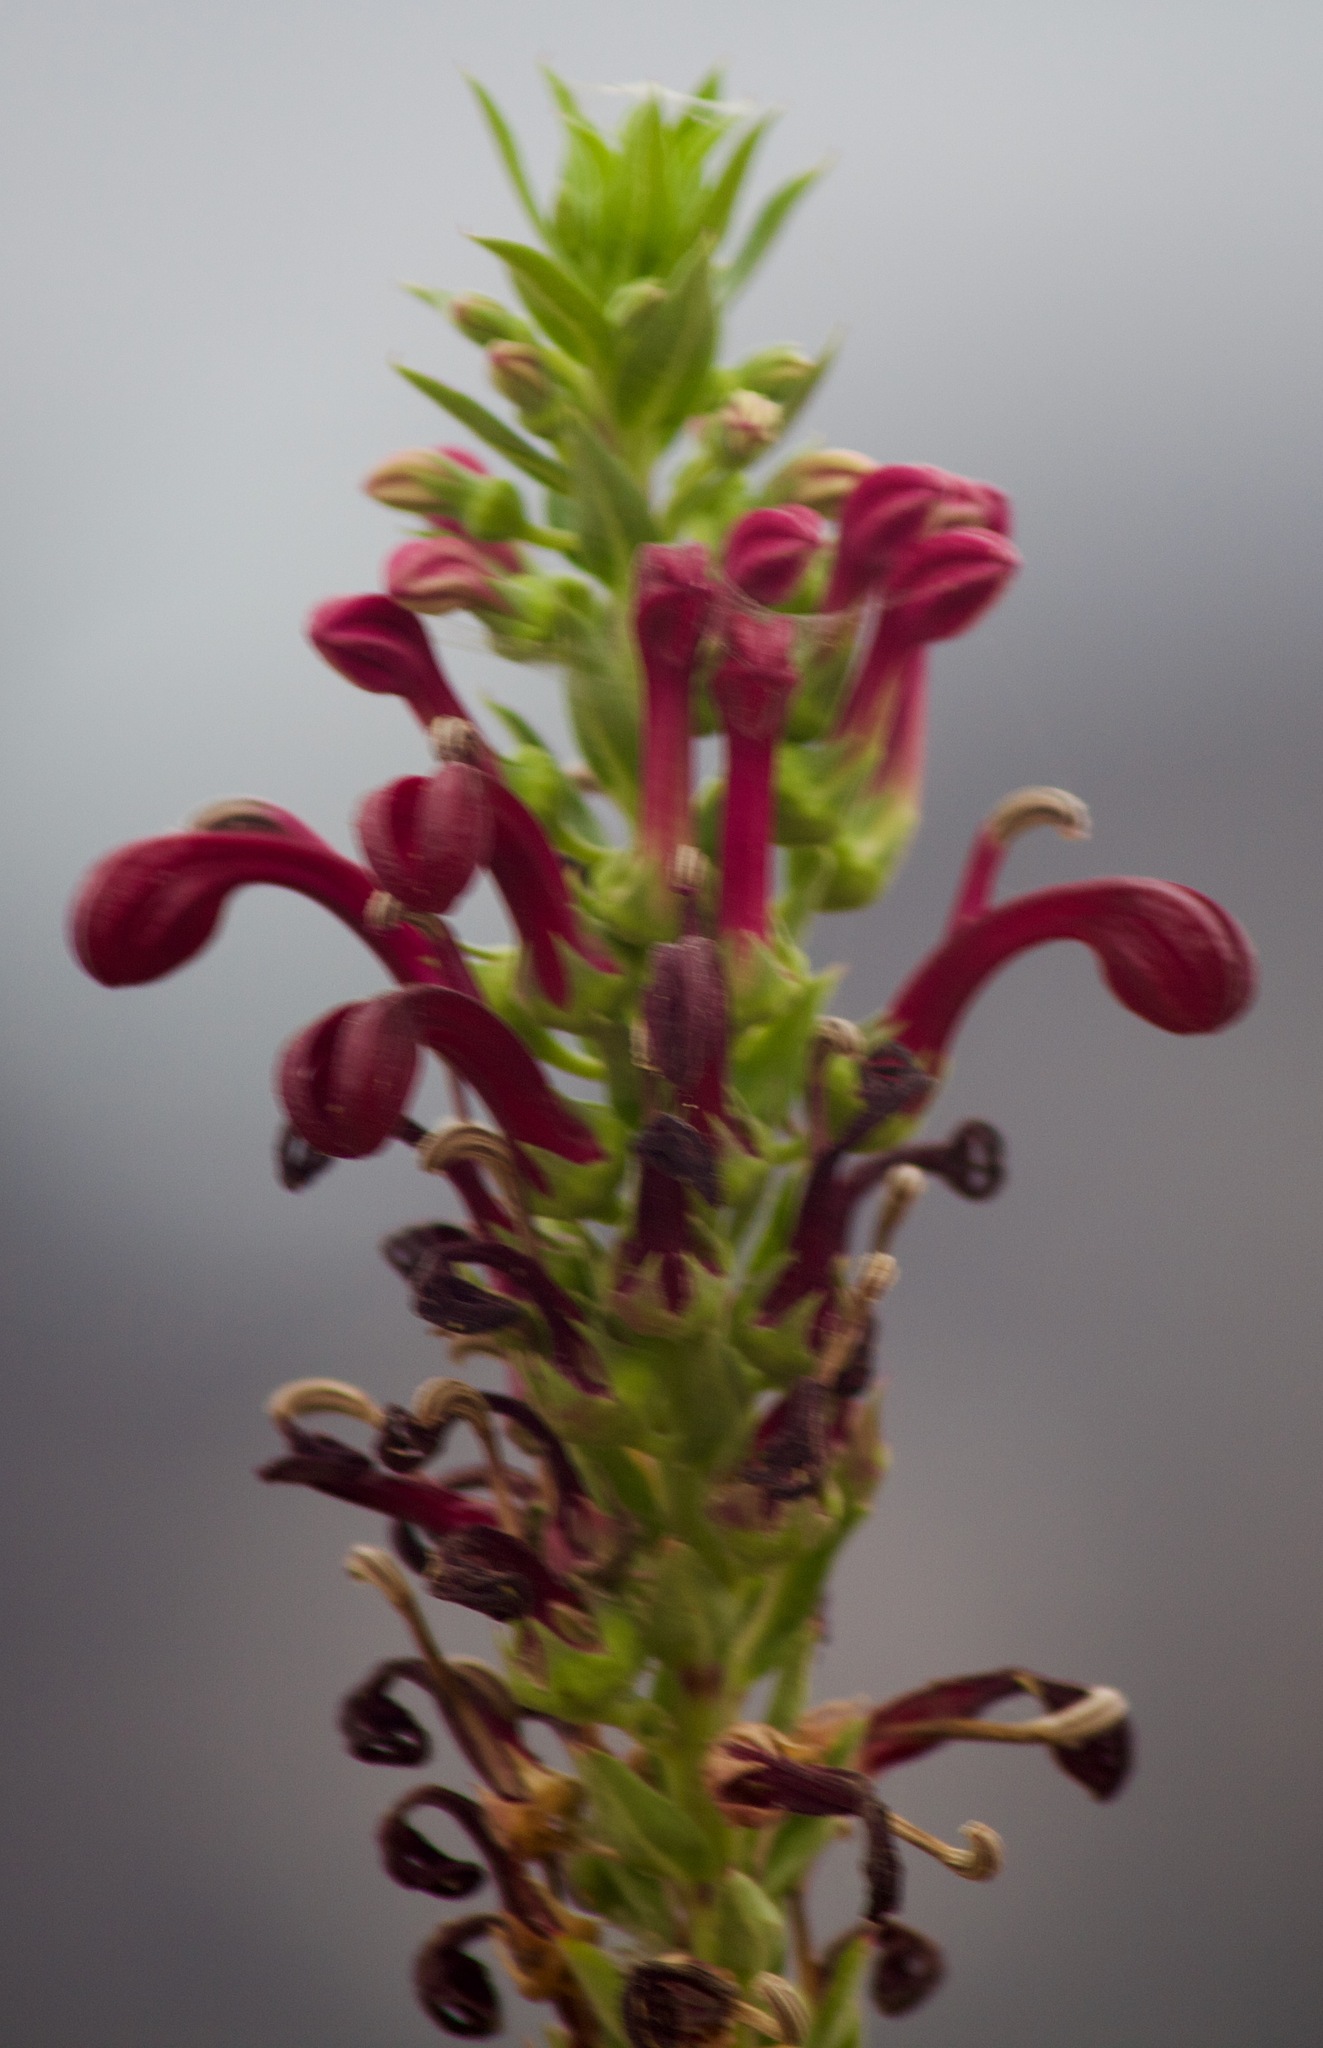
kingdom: Plantae
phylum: Tracheophyta
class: Magnoliopsida
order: Asterales
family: Campanulaceae
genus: Lobelia
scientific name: Lobelia polyphylla
